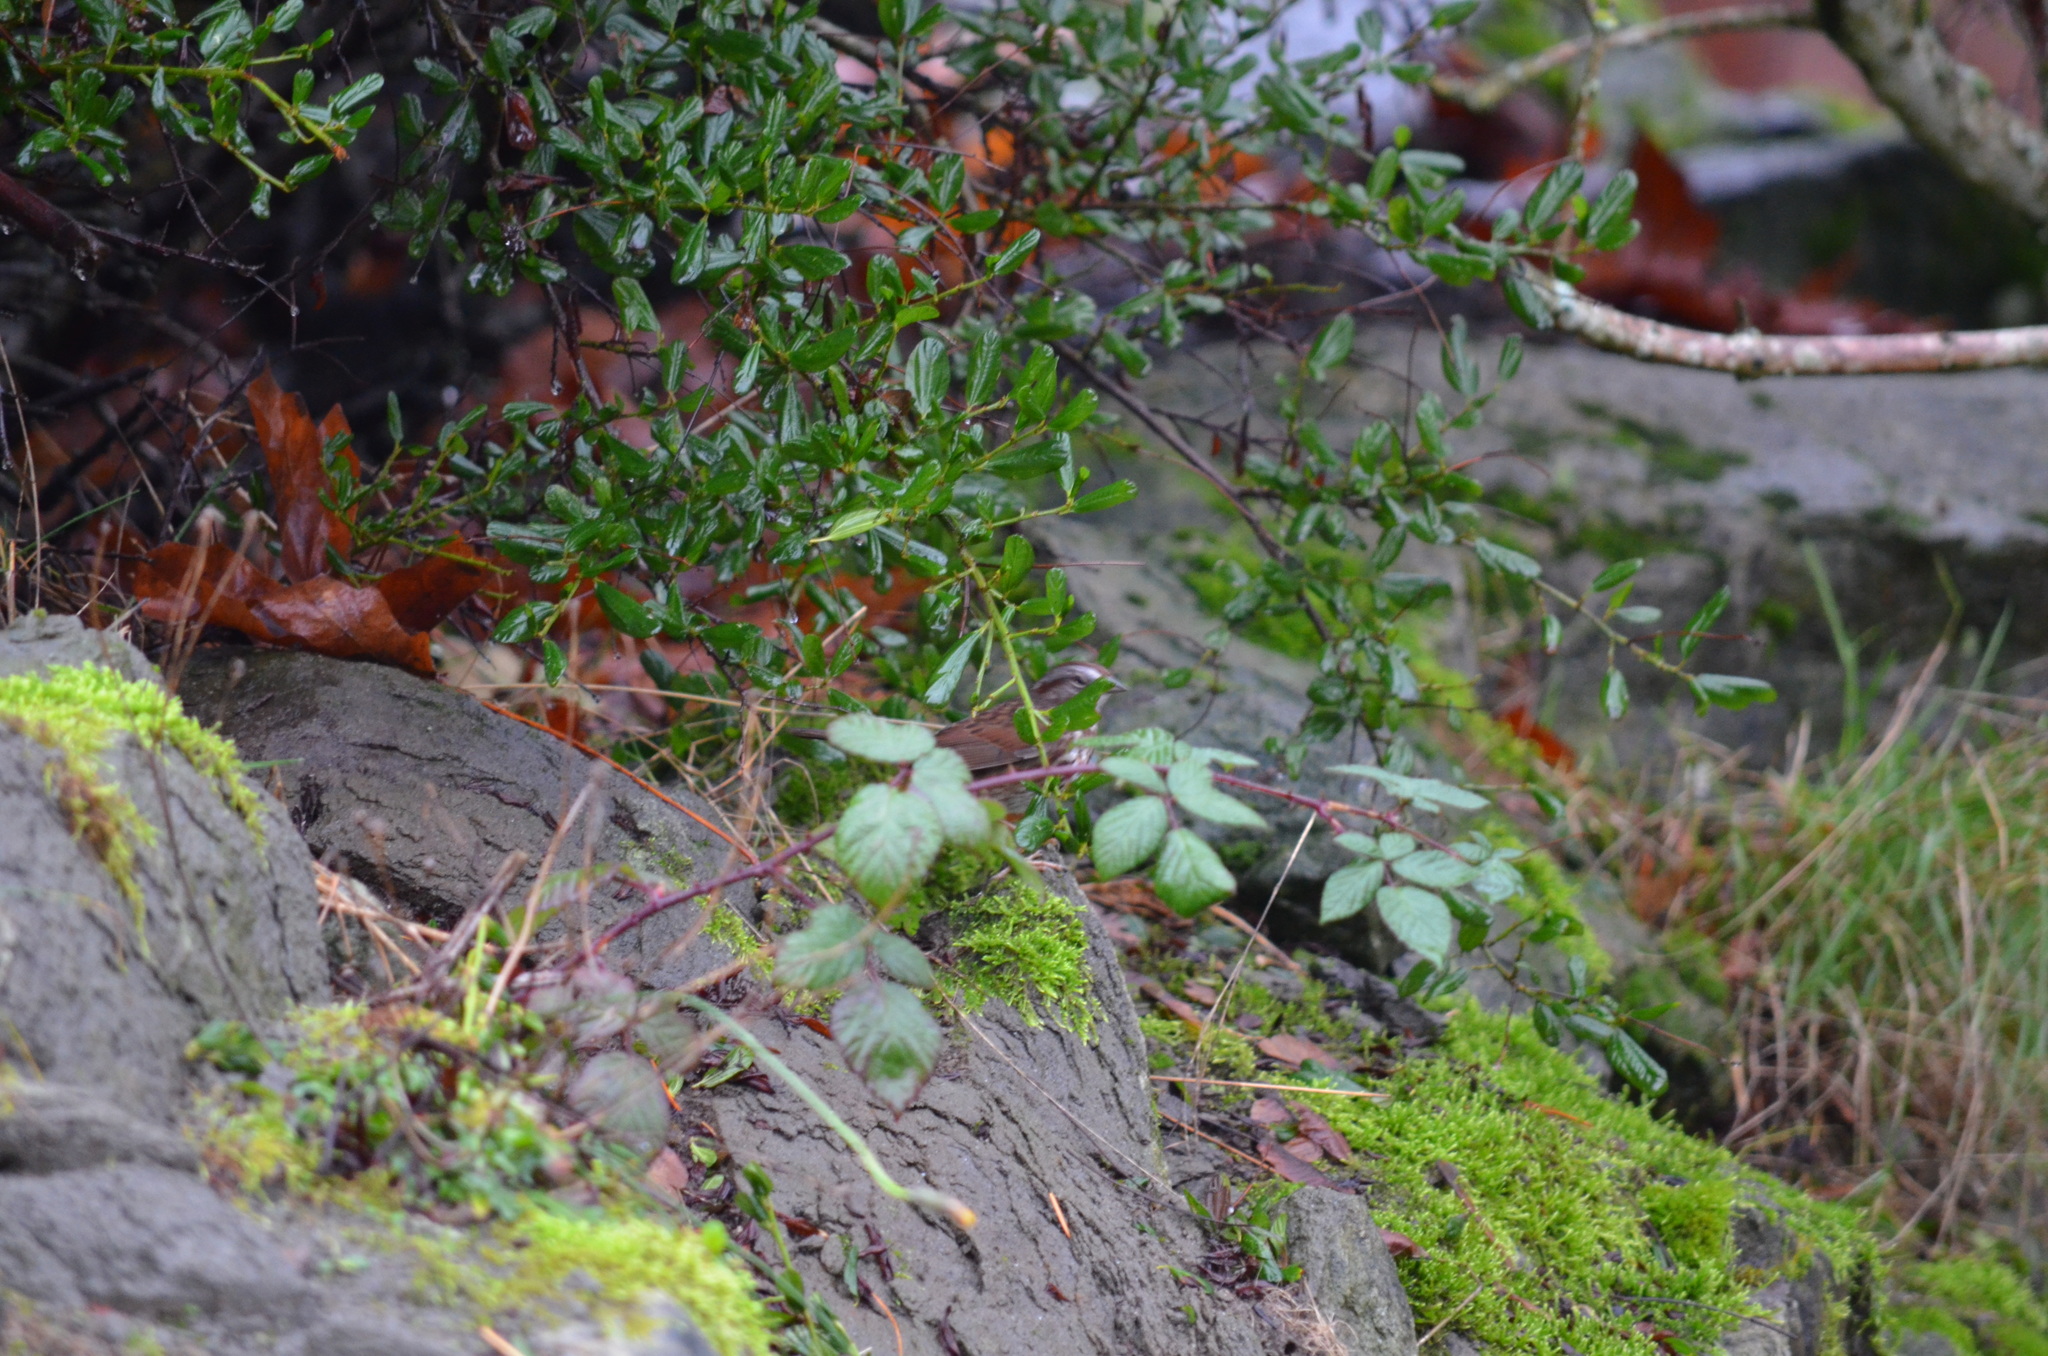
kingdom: Animalia
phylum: Chordata
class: Aves
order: Passeriformes
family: Passerellidae
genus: Melospiza
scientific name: Melospiza melodia
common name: Song sparrow
